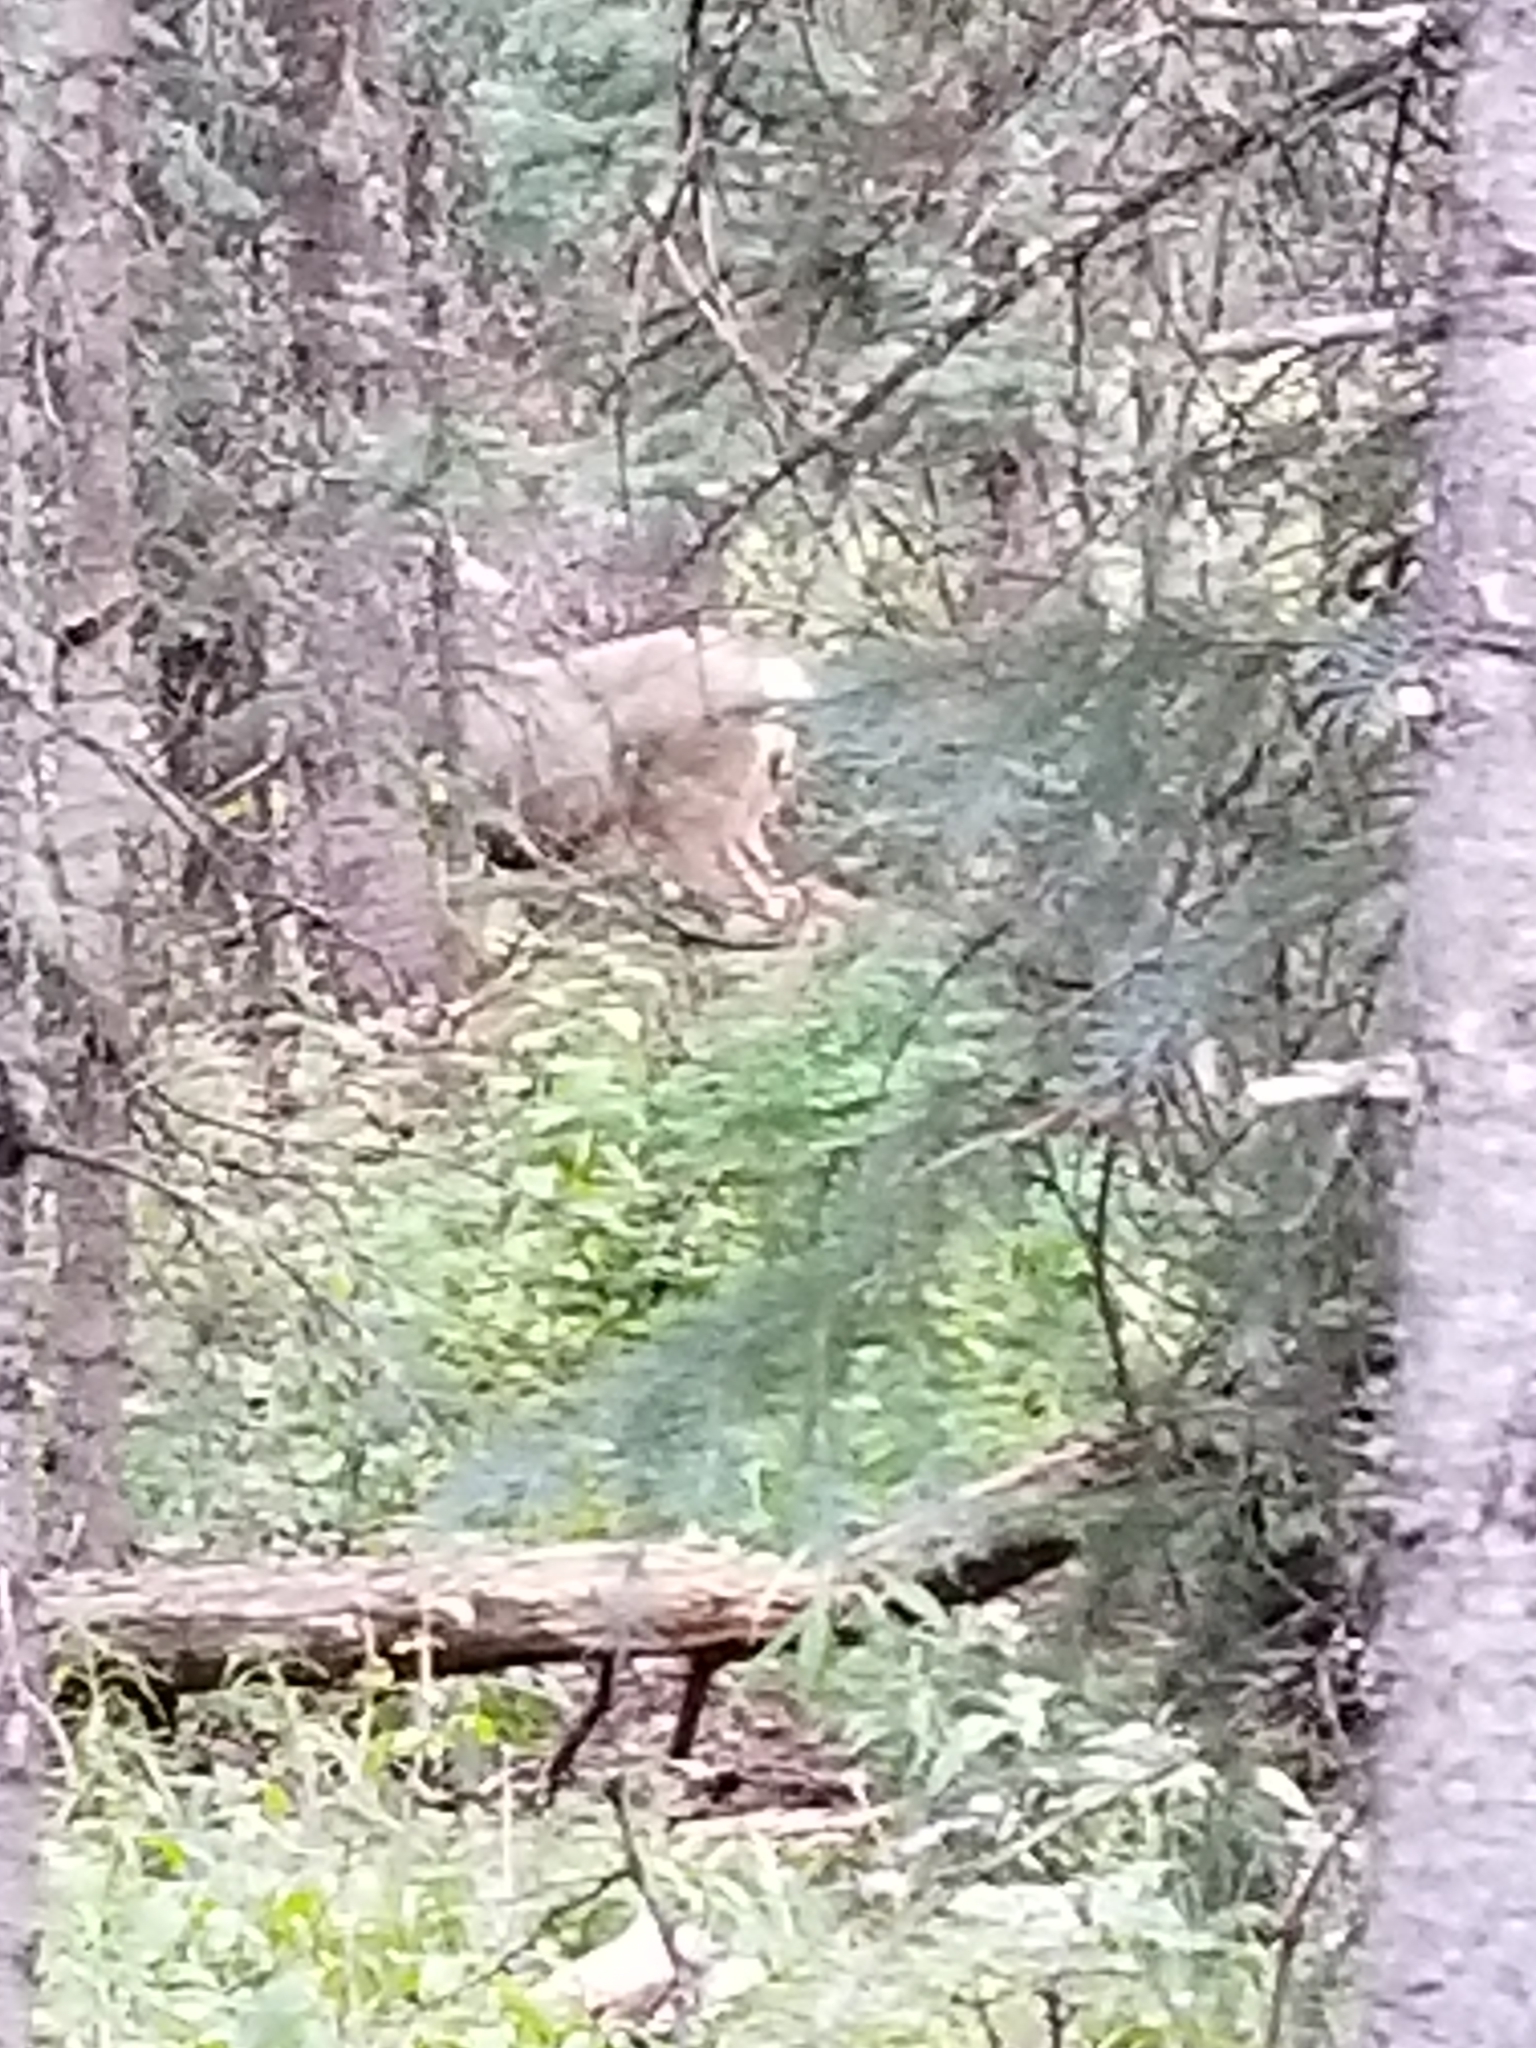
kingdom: Animalia
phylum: Chordata
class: Mammalia
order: Artiodactyla
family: Cervidae
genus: Odocoileus
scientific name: Odocoileus hemionus
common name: Mule deer
